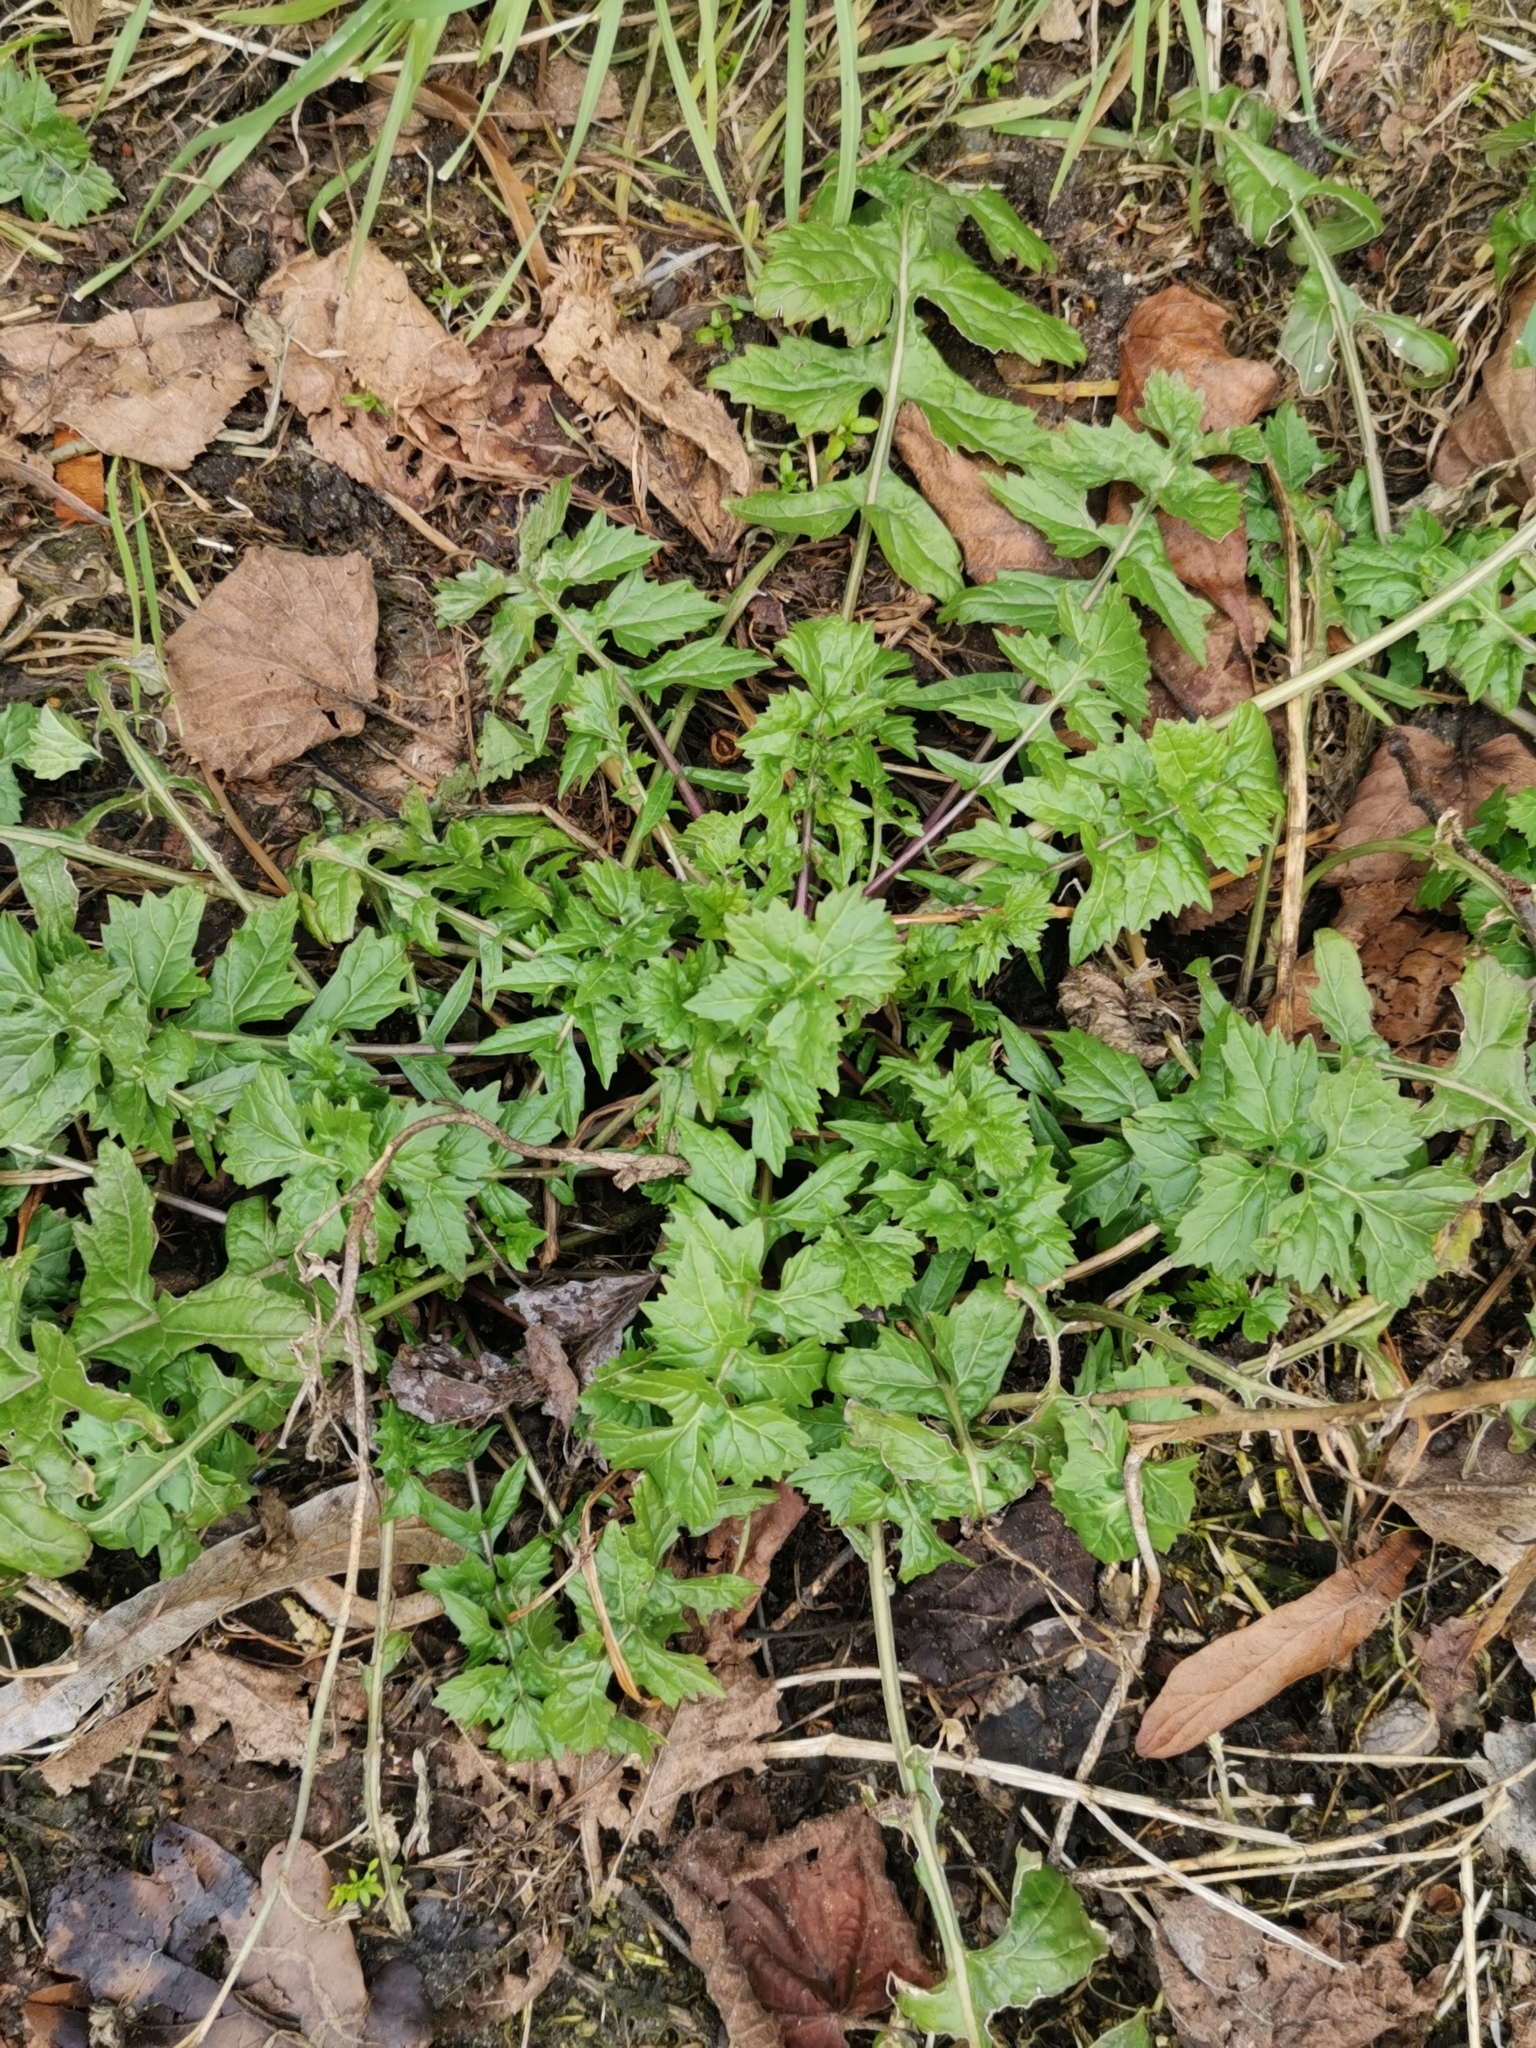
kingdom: Plantae
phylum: Tracheophyta
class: Magnoliopsida
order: Brassicales
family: Brassicaceae
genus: Sisymbrium
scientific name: Sisymbrium officinale
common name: Hedge mustard
